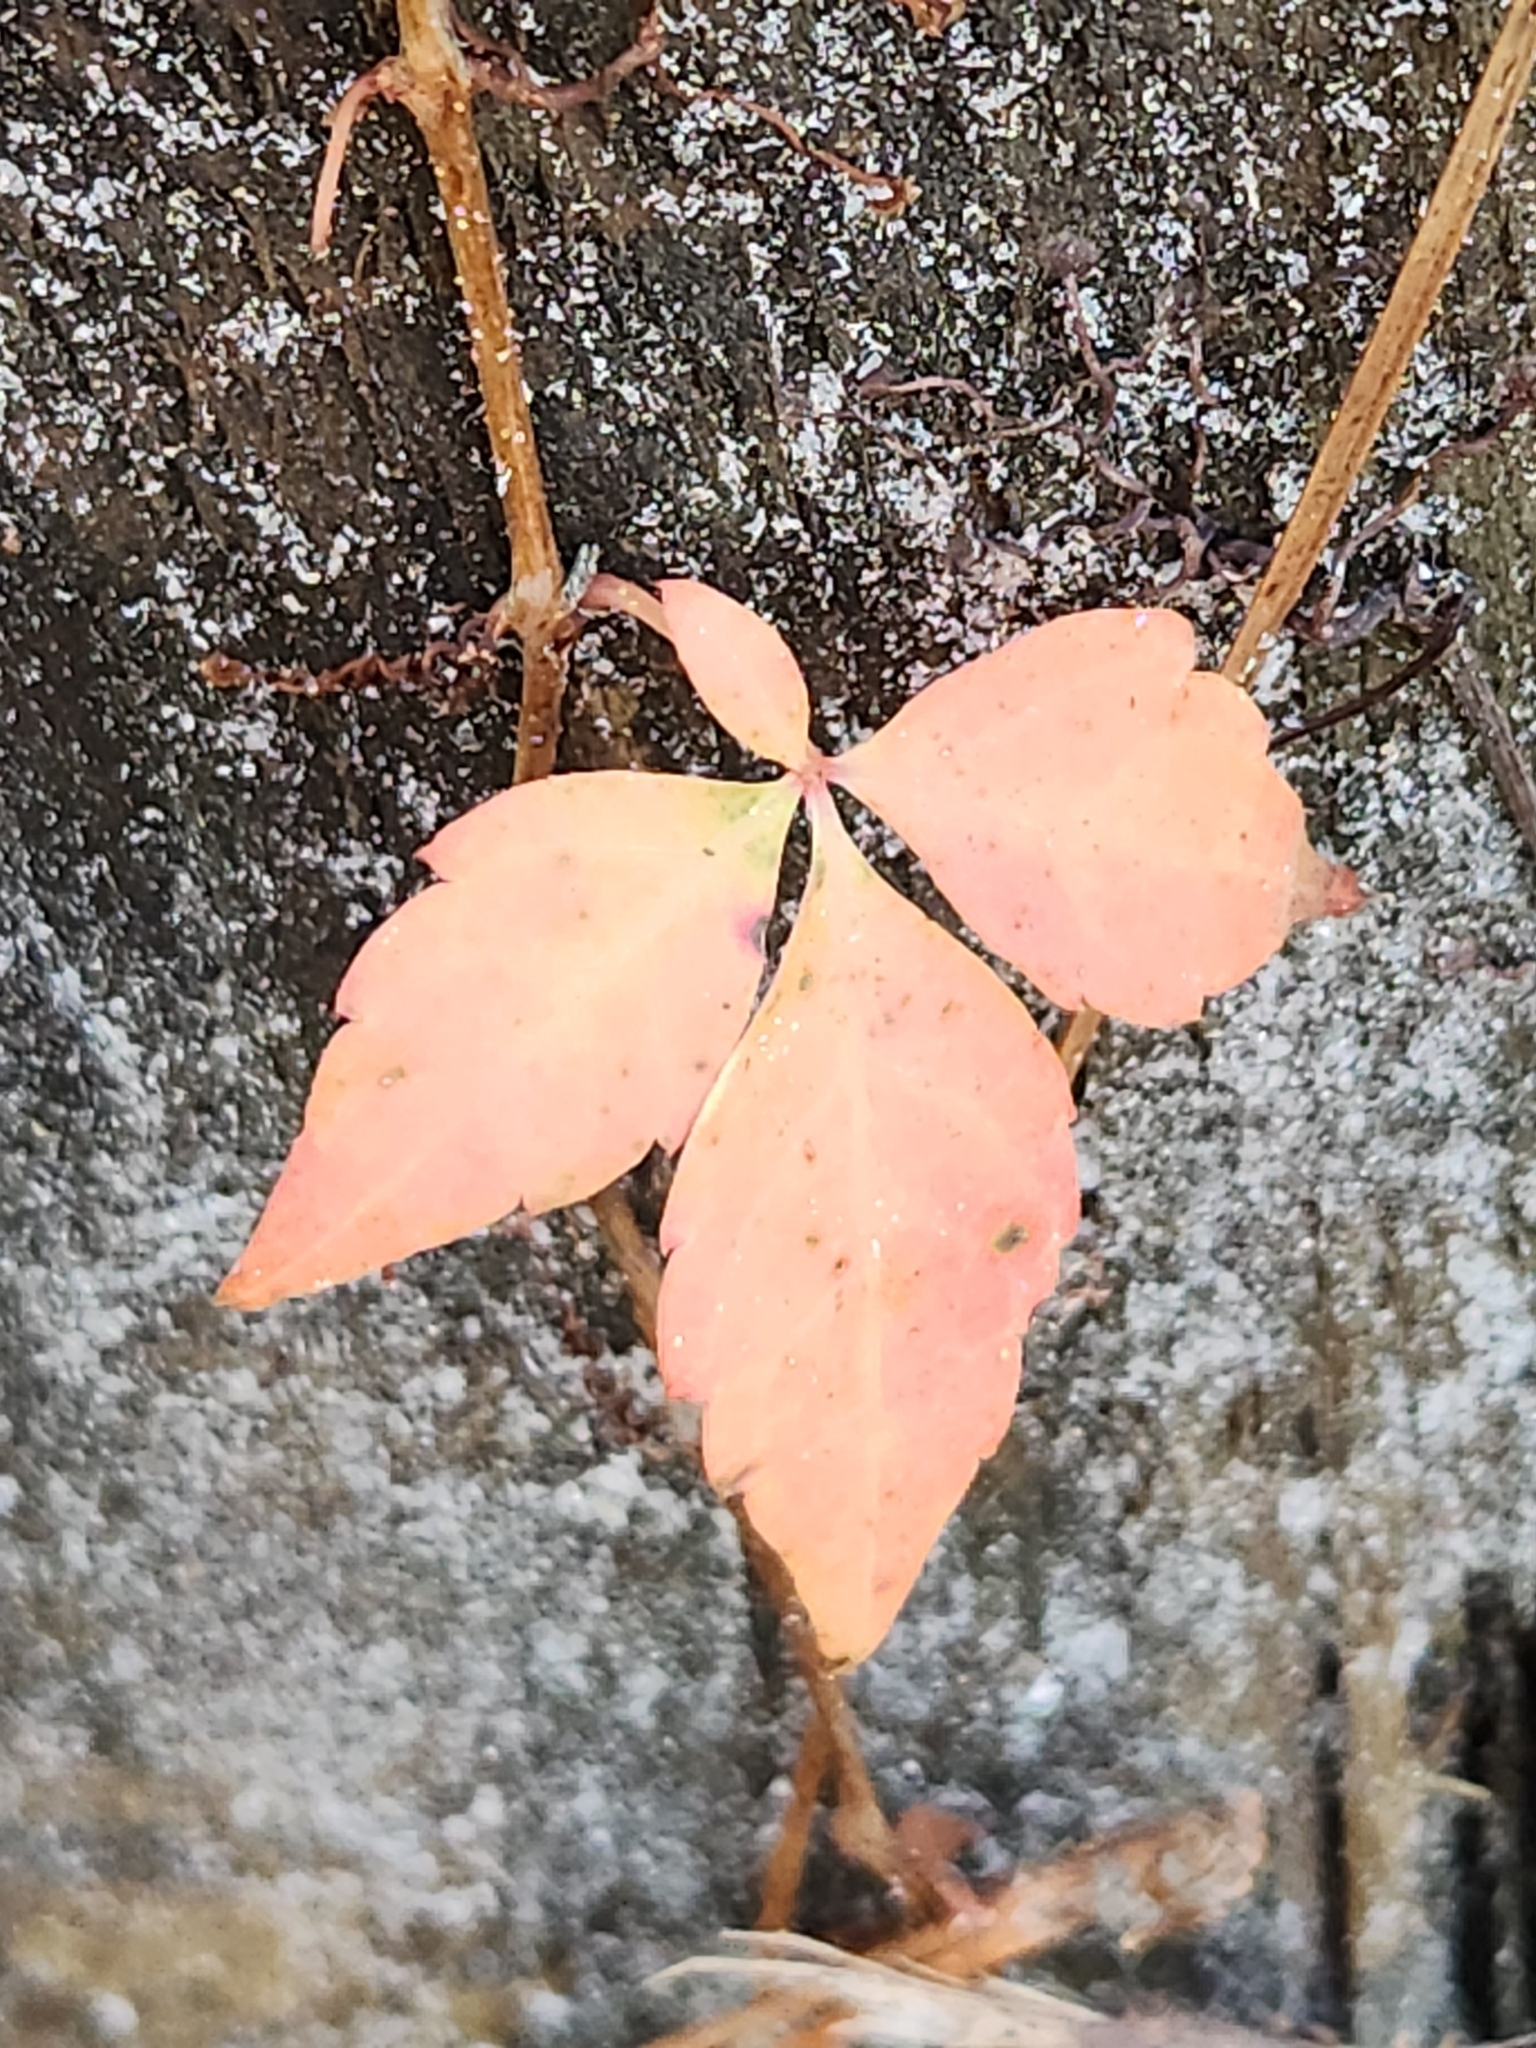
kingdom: Plantae
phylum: Tracheophyta
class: Magnoliopsida
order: Vitales
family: Vitaceae
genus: Parthenocissus
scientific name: Parthenocissus quinquefolia
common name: Virginia-creeper
